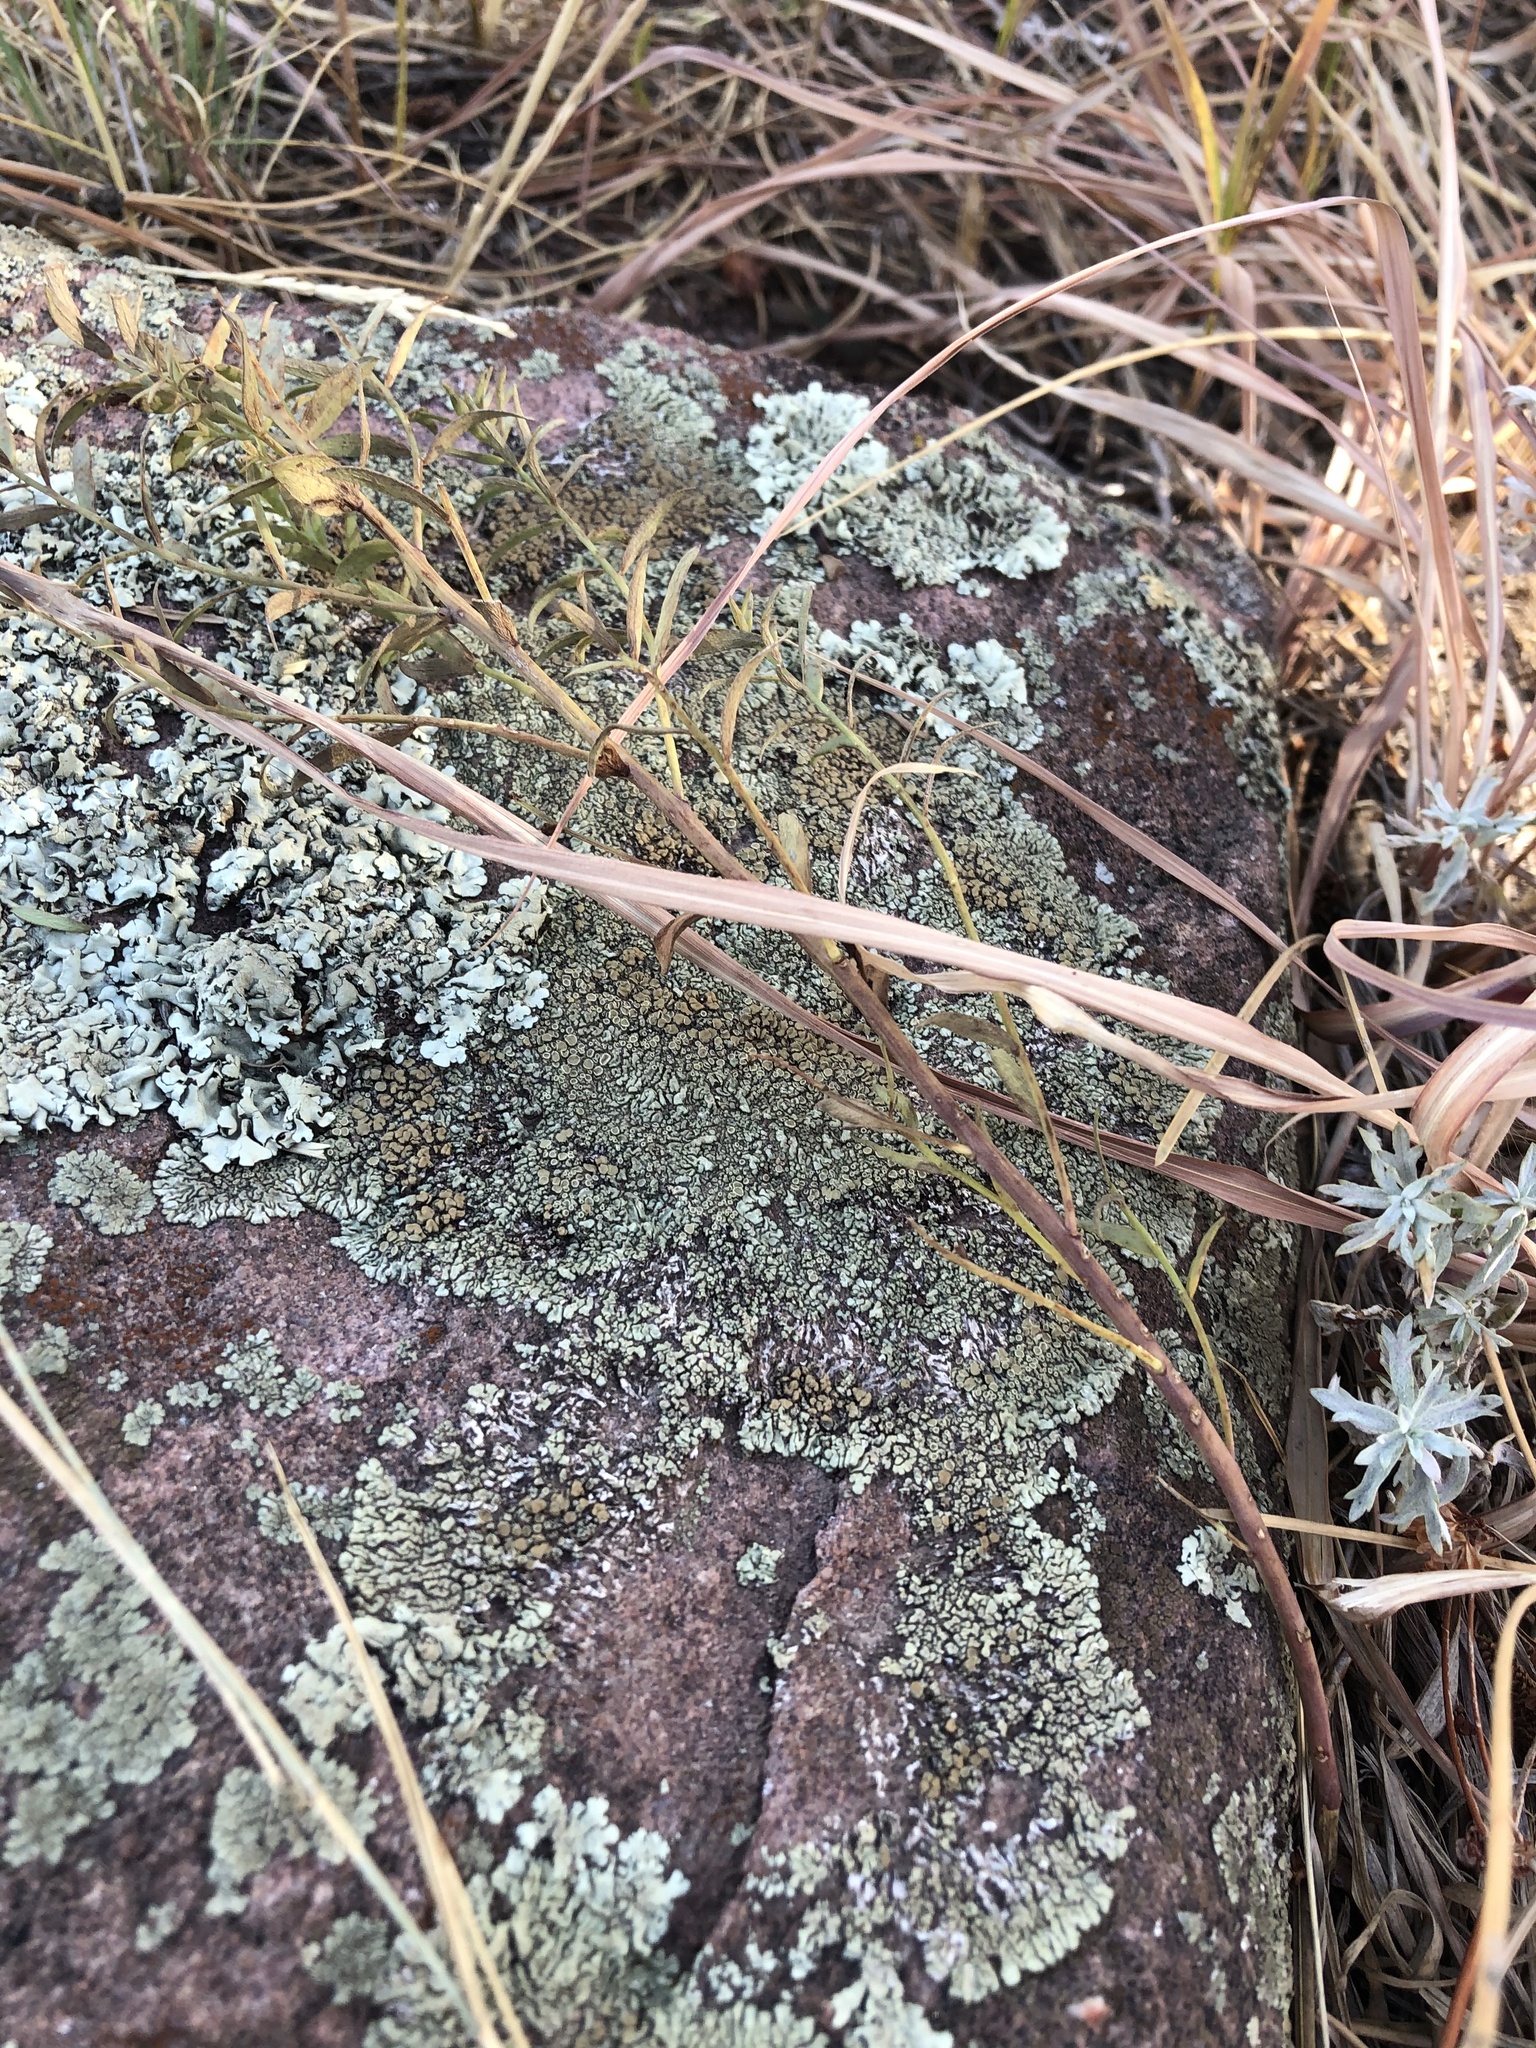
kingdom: Fungi
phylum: Ascomycota
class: Lecanoromycetes
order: Lecanorales
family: Lecanoraceae
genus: Protoparmeliopsis
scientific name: Protoparmeliopsis muralis
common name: Stonewall rim lichen
